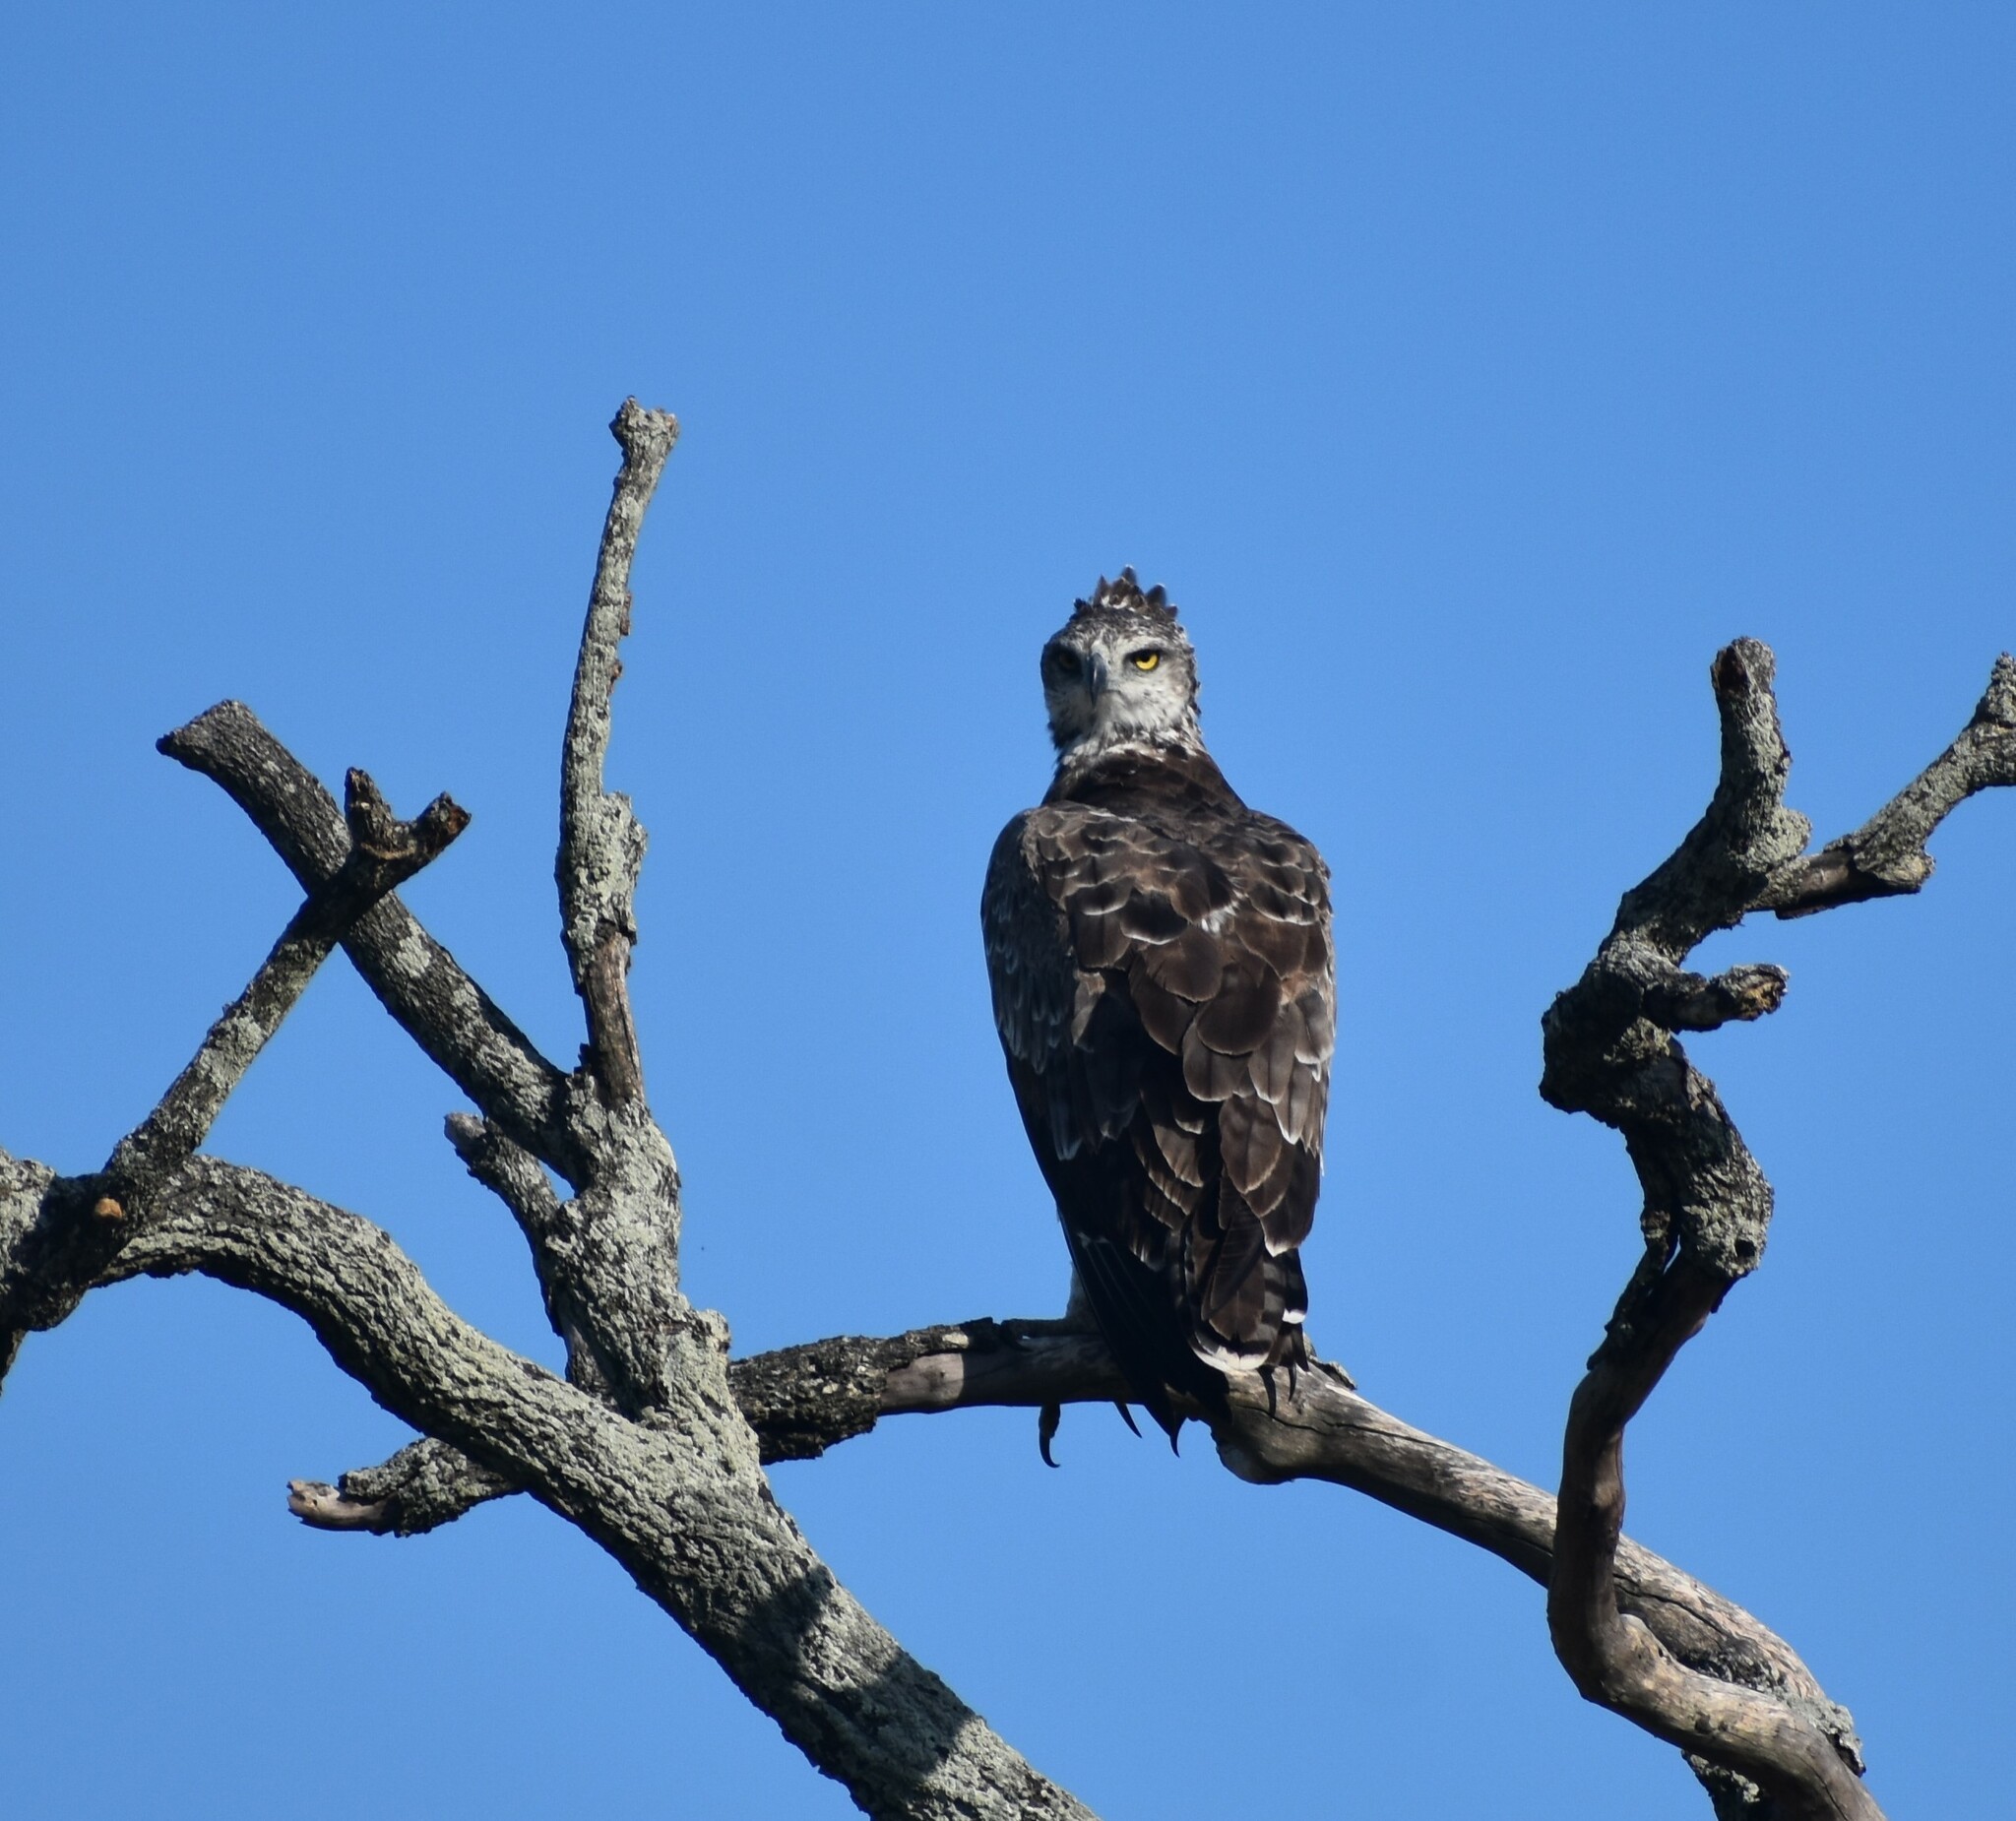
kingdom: Animalia
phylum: Chordata
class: Aves
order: Accipitriformes
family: Accipitridae
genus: Polemaetus
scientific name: Polemaetus bellicosus
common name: Martial eagle
